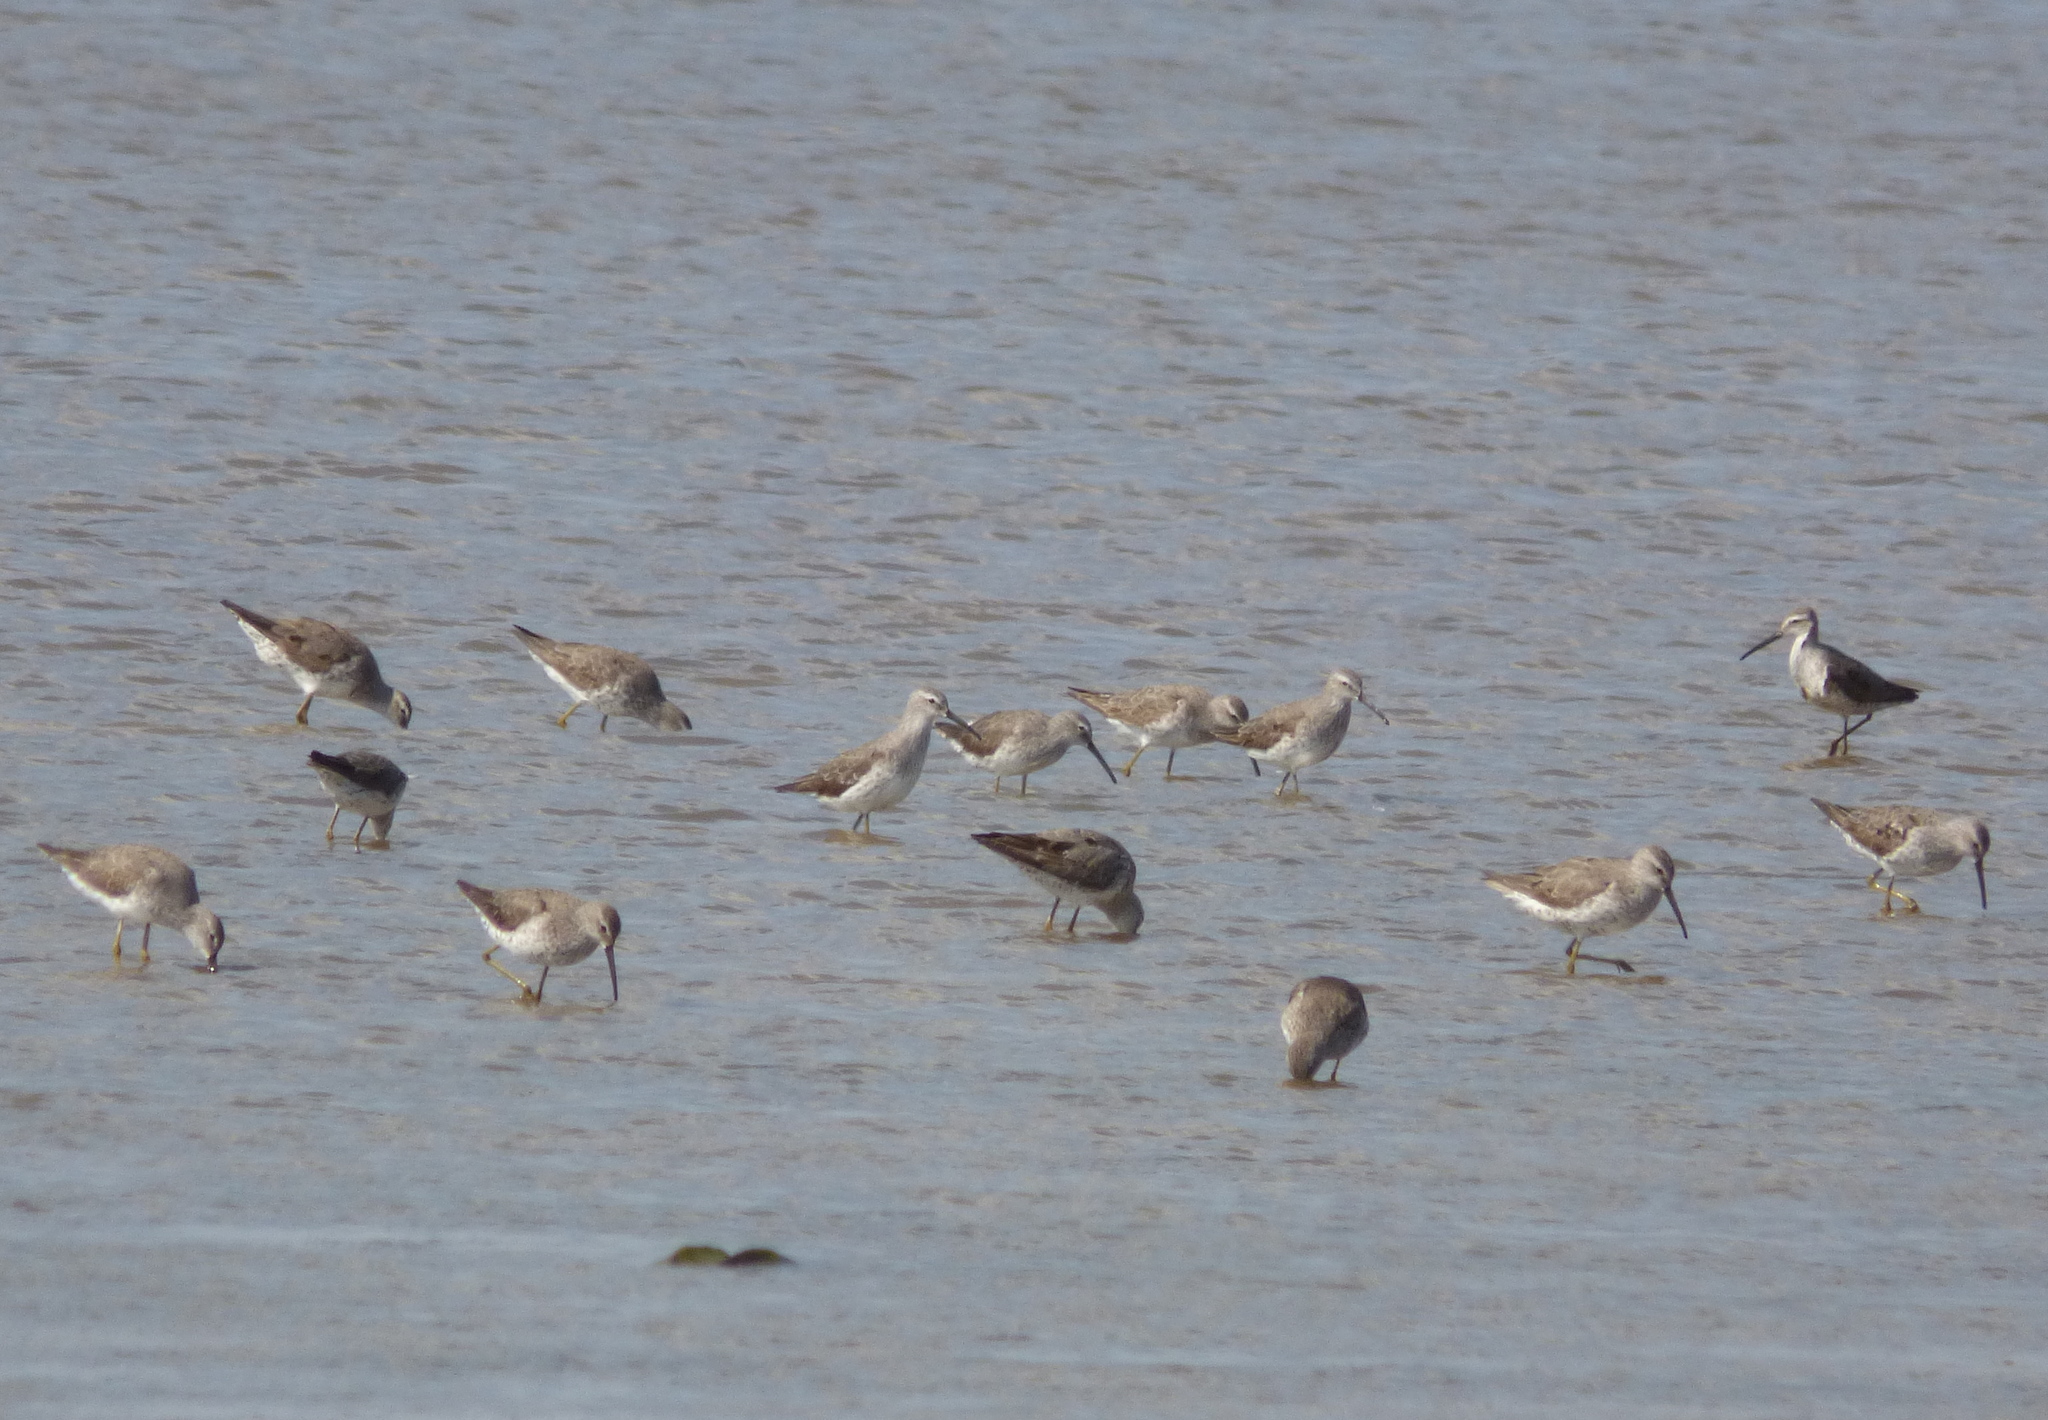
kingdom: Animalia
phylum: Chordata
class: Aves
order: Charadriiformes
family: Scolopacidae
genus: Calidris
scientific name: Calidris himantopus
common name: Stilt sandpiper
